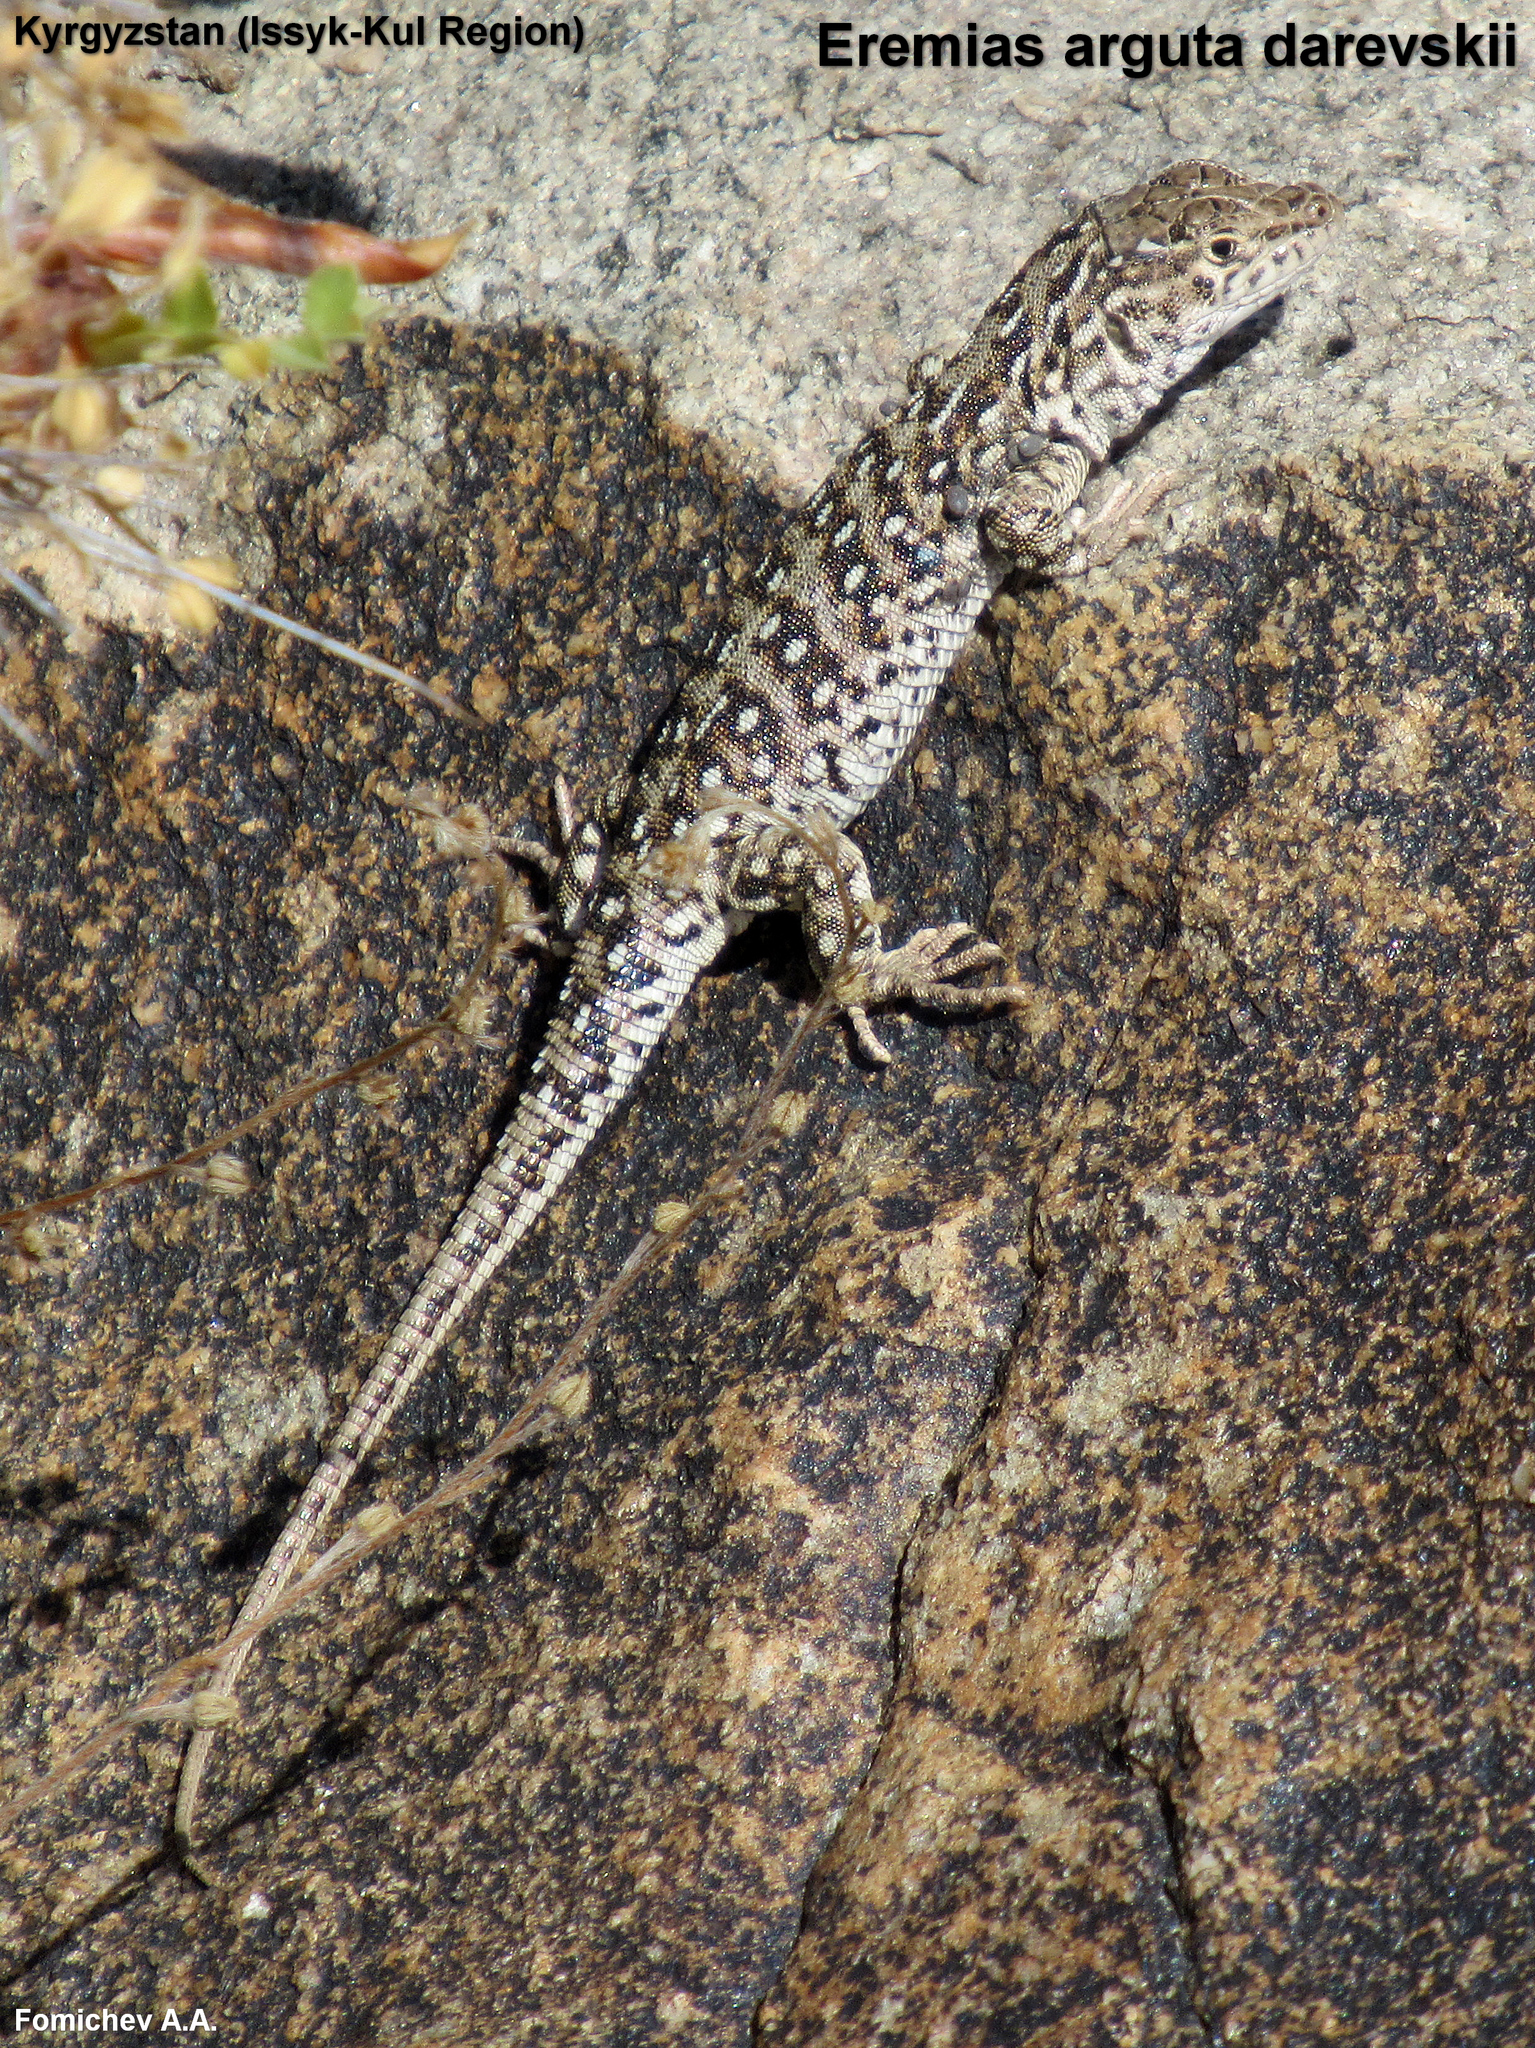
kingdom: Animalia
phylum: Chordata
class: Squamata
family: Lacertidae
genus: Eremias
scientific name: Eremias arguta
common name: Racerunner
